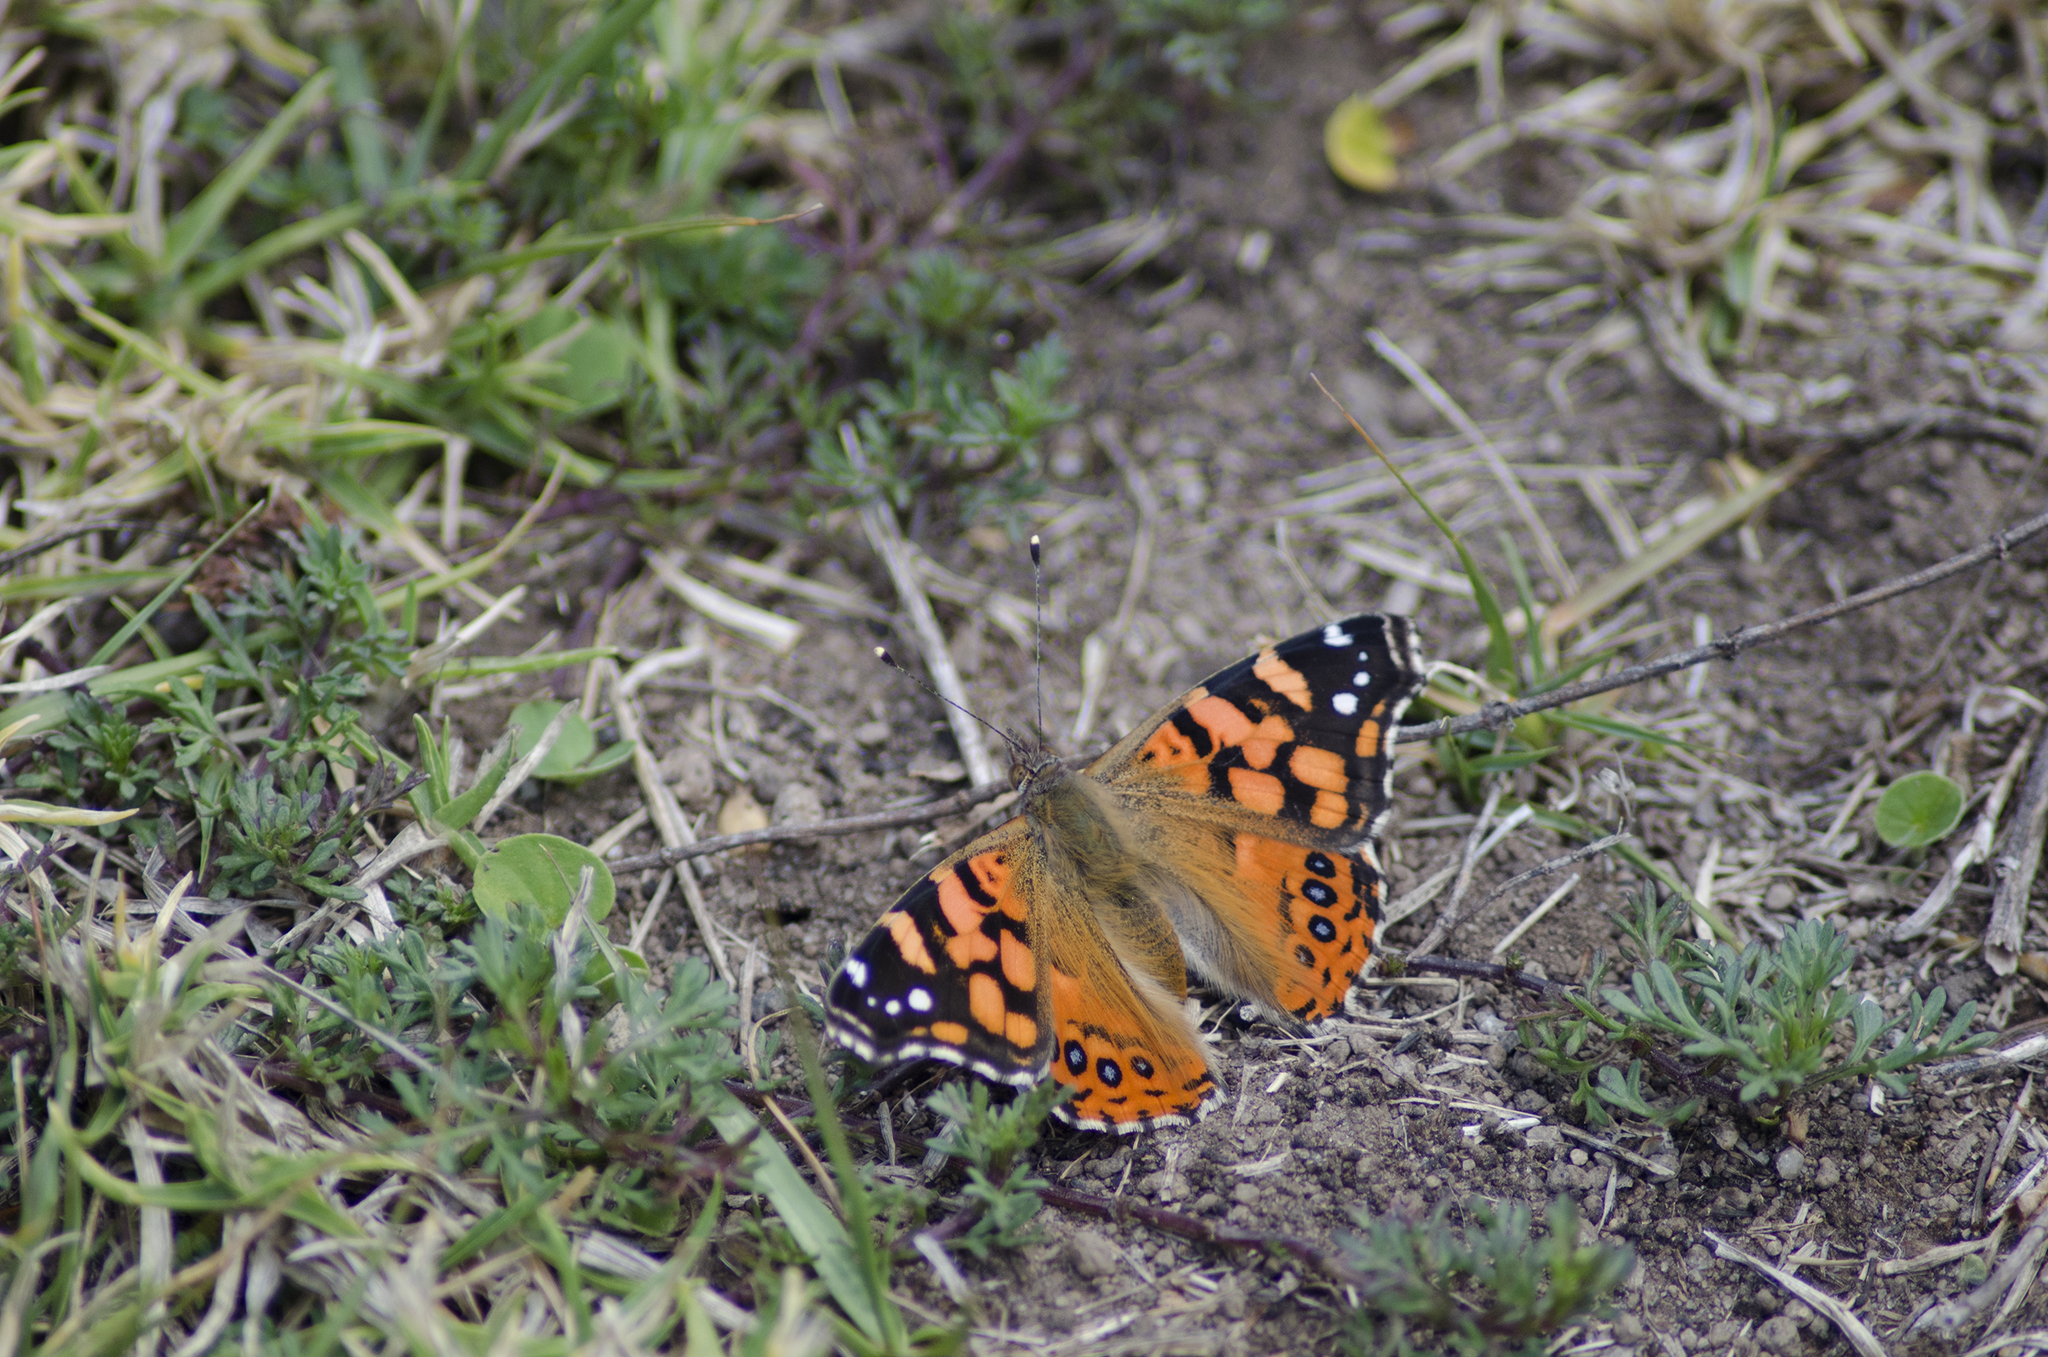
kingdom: Animalia
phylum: Arthropoda
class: Insecta
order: Lepidoptera
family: Nymphalidae
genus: Vanessa
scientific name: Vanessa carye
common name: Subtropical lady
